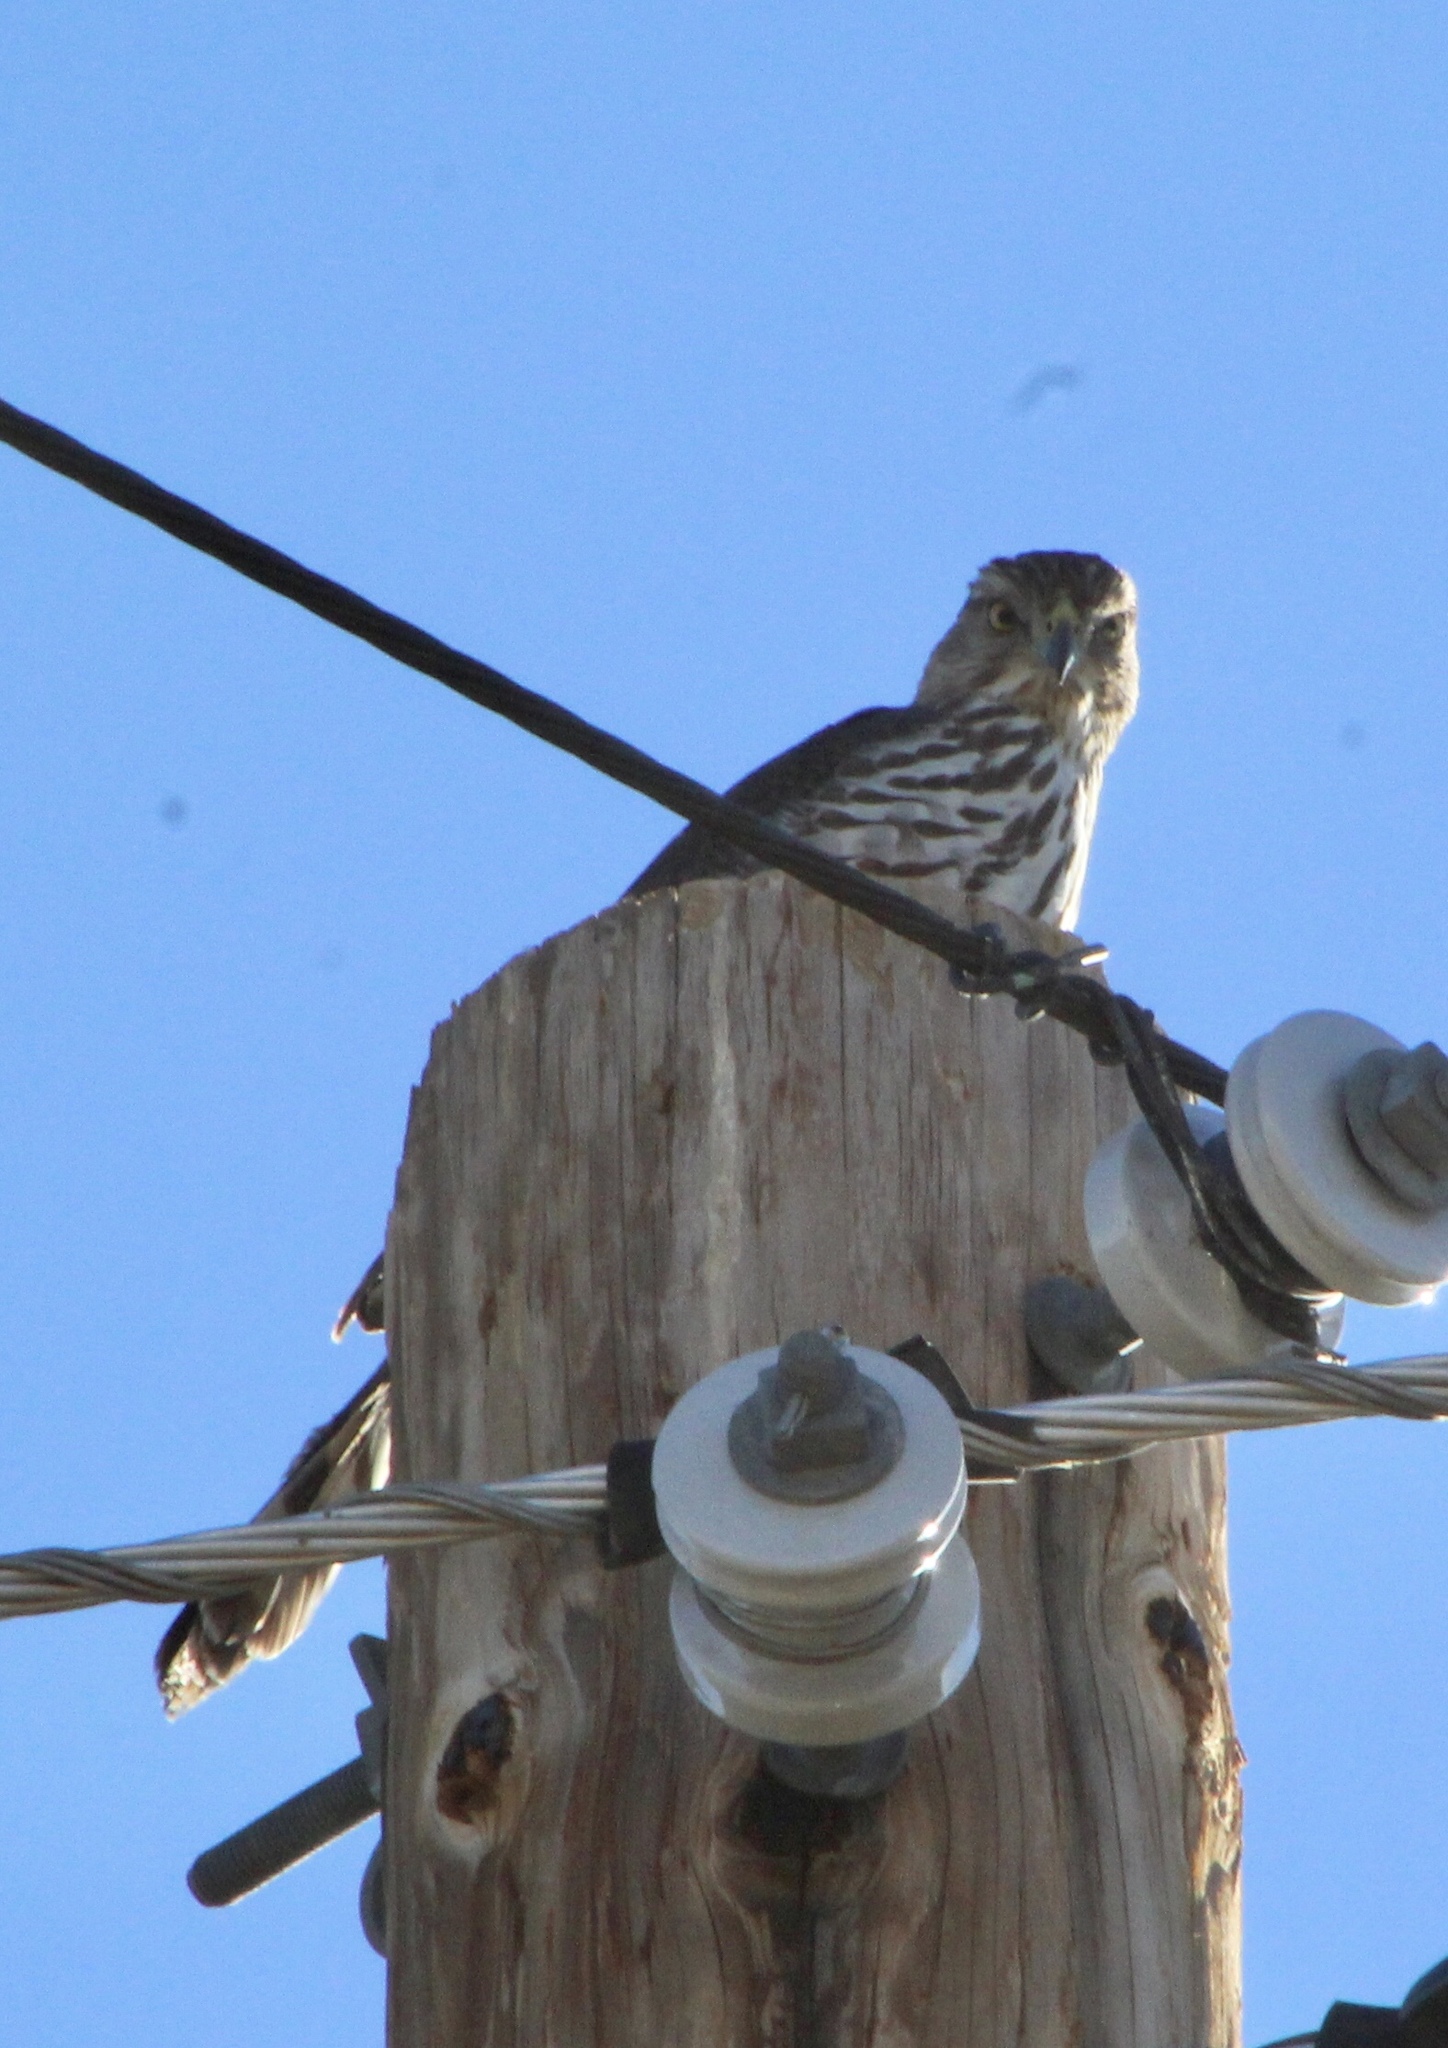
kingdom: Animalia
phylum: Chordata
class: Aves
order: Accipitriformes
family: Accipitridae
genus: Accipiter
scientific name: Accipiter cooperii
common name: Cooper's hawk
